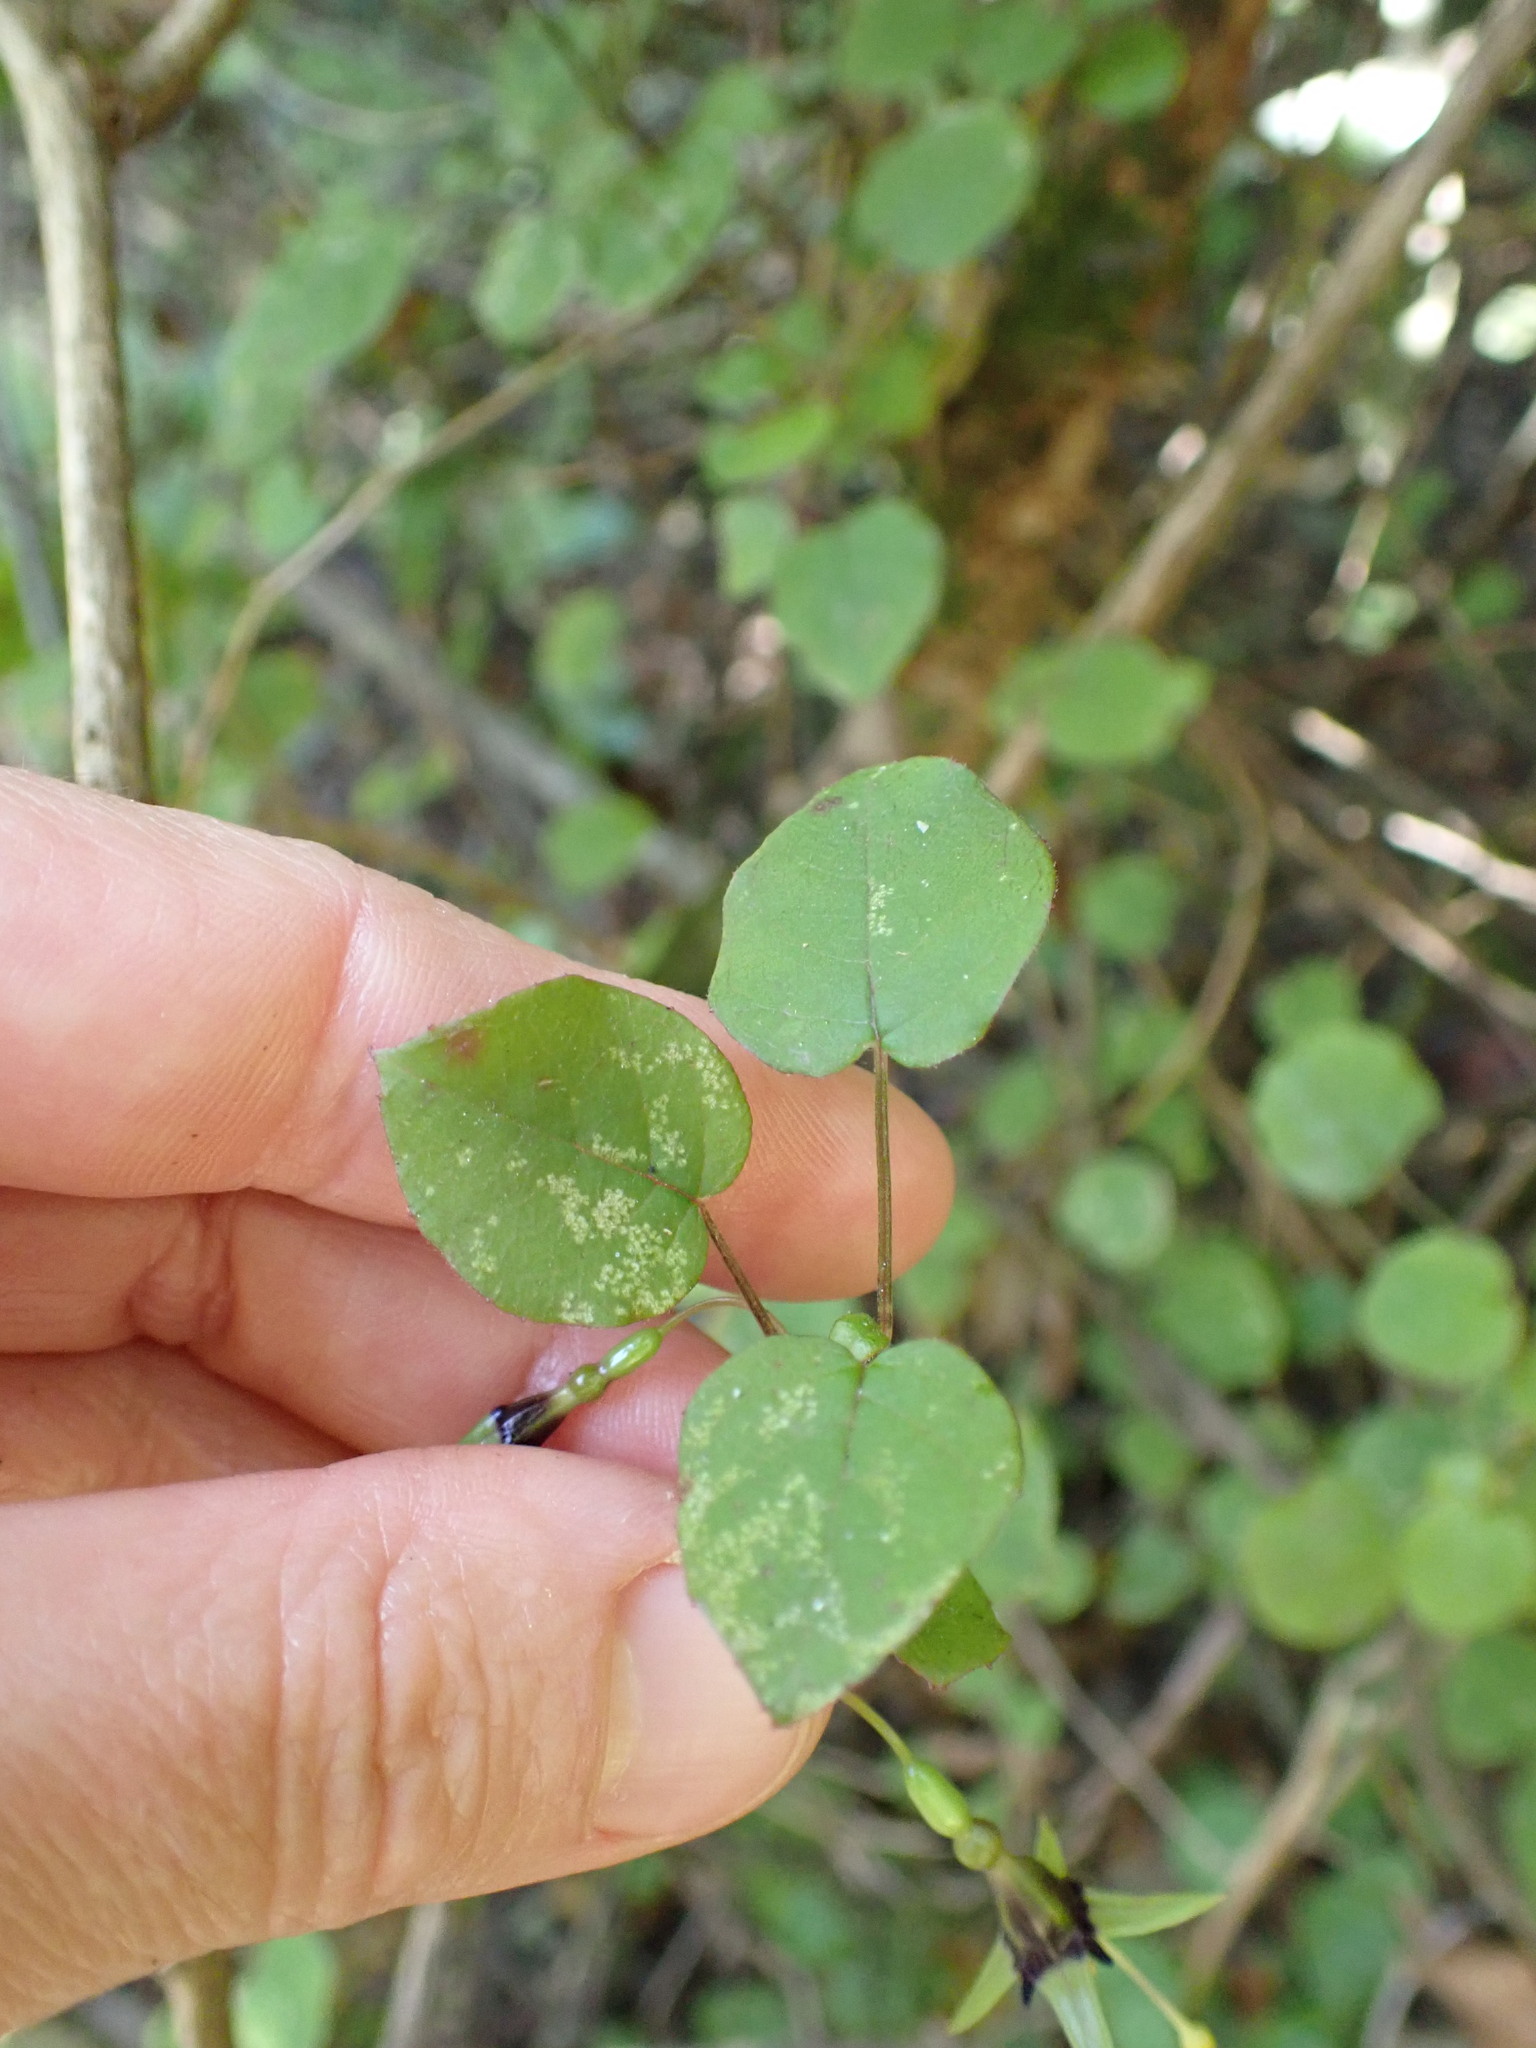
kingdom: Plantae
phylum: Tracheophyta
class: Magnoliopsida
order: Myrtales
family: Onagraceae
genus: Fuchsia
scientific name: Fuchsia perscandens
